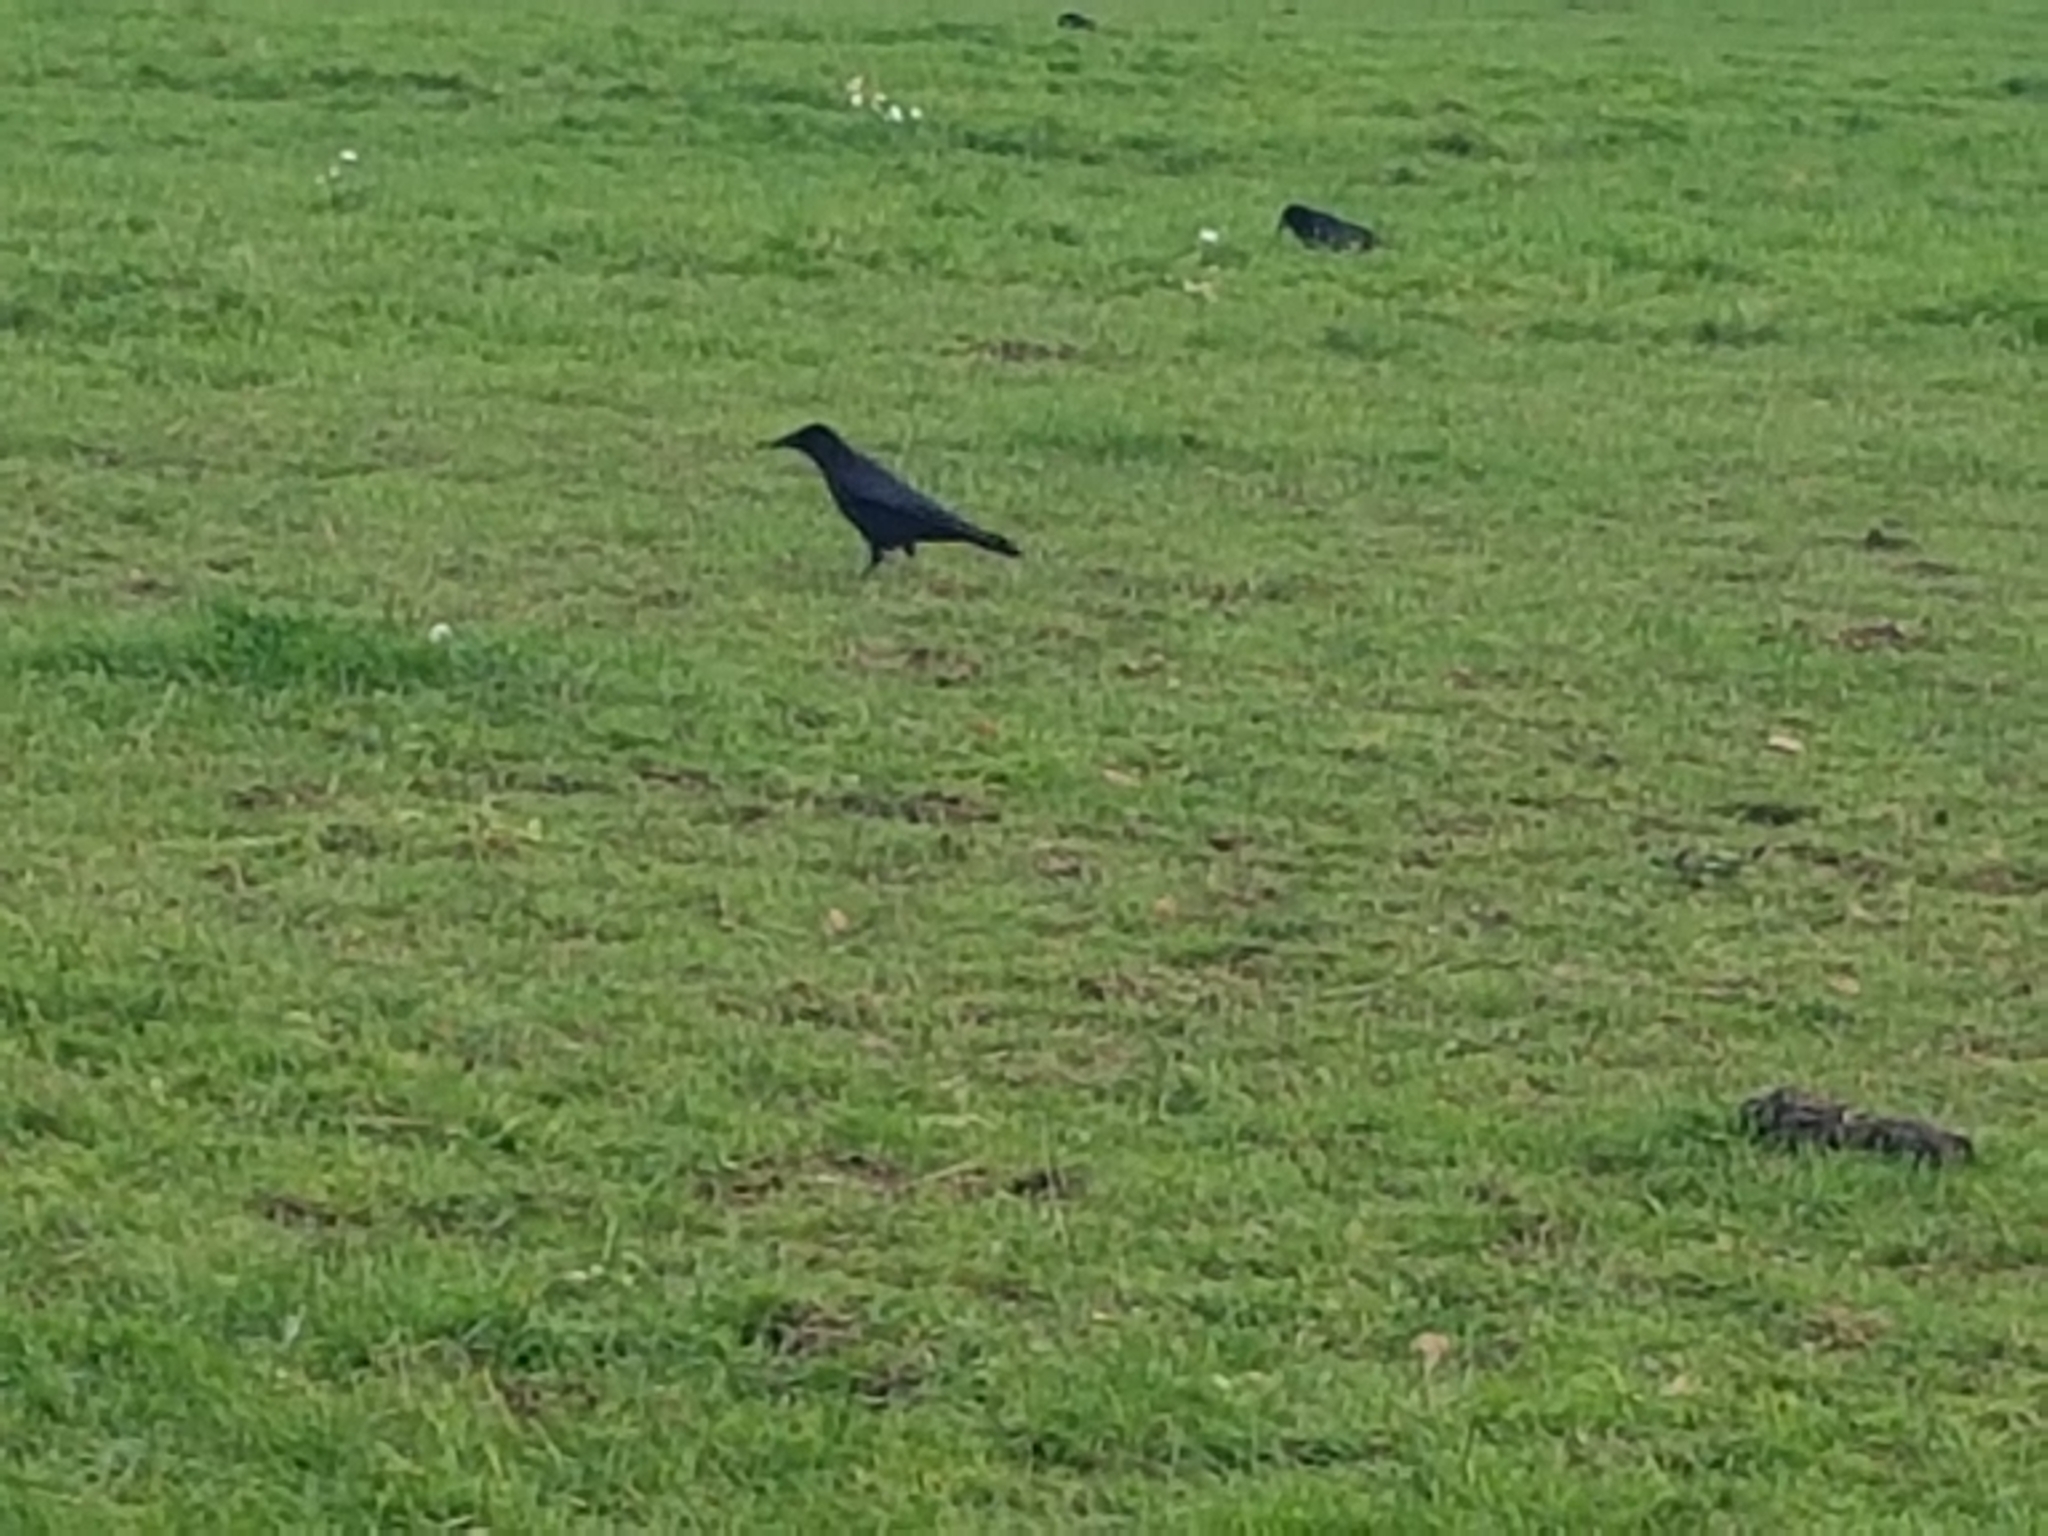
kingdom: Animalia
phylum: Chordata
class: Aves
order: Passeriformes
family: Corvidae
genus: Corvus
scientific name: Corvus corone
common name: Carrion crow
